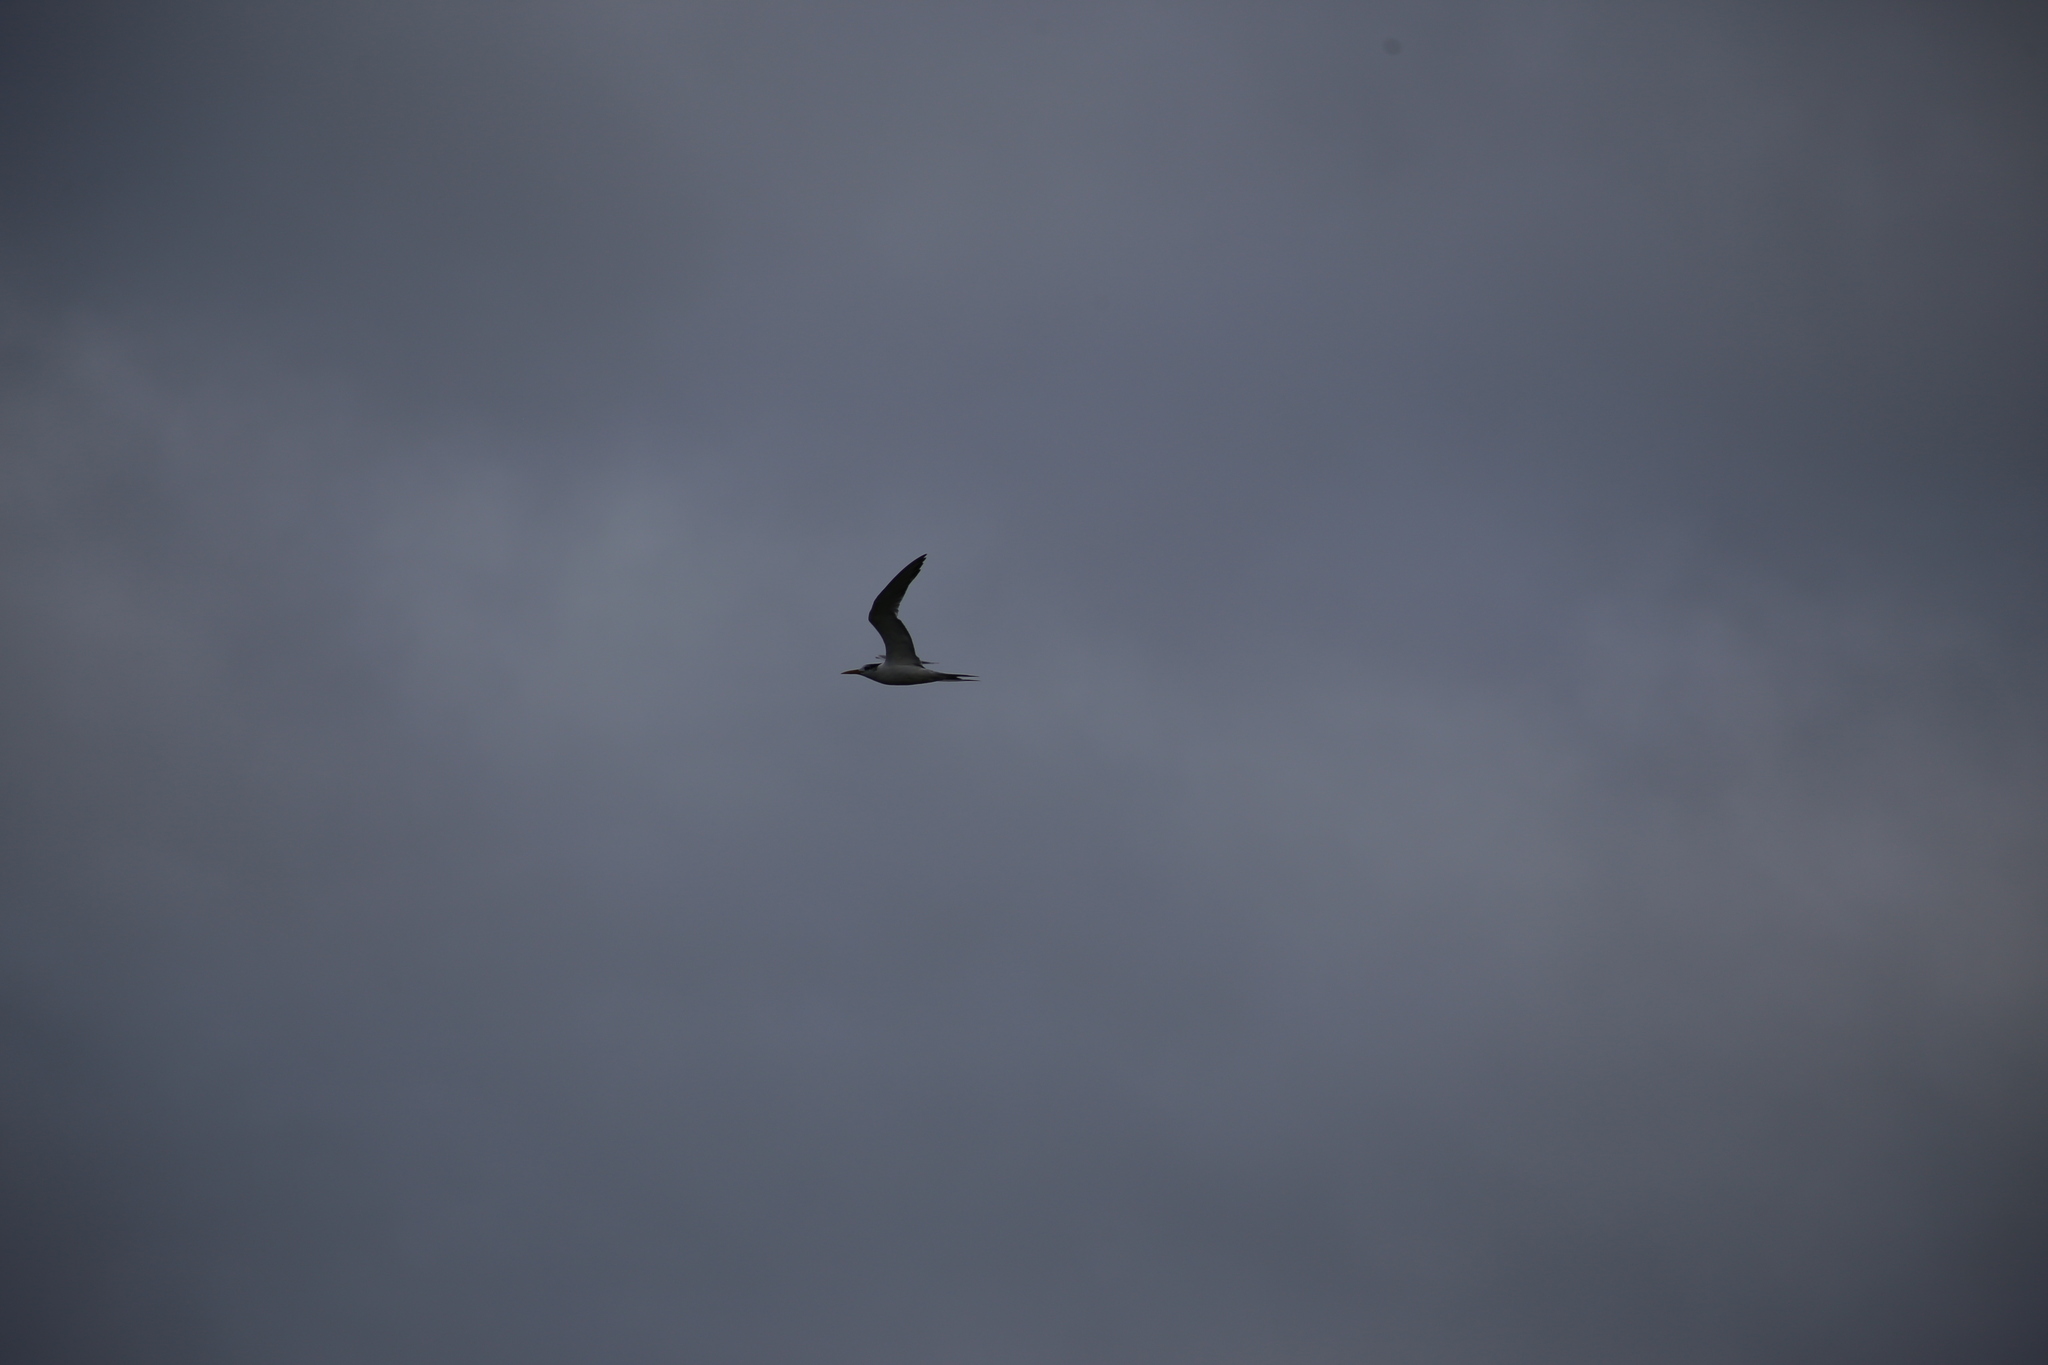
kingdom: Animalia
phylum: Chordata
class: Aves
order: Charadriiformes
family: Laridae
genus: Thalasseus
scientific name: Thalasseus bergii
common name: Greater crested tern
